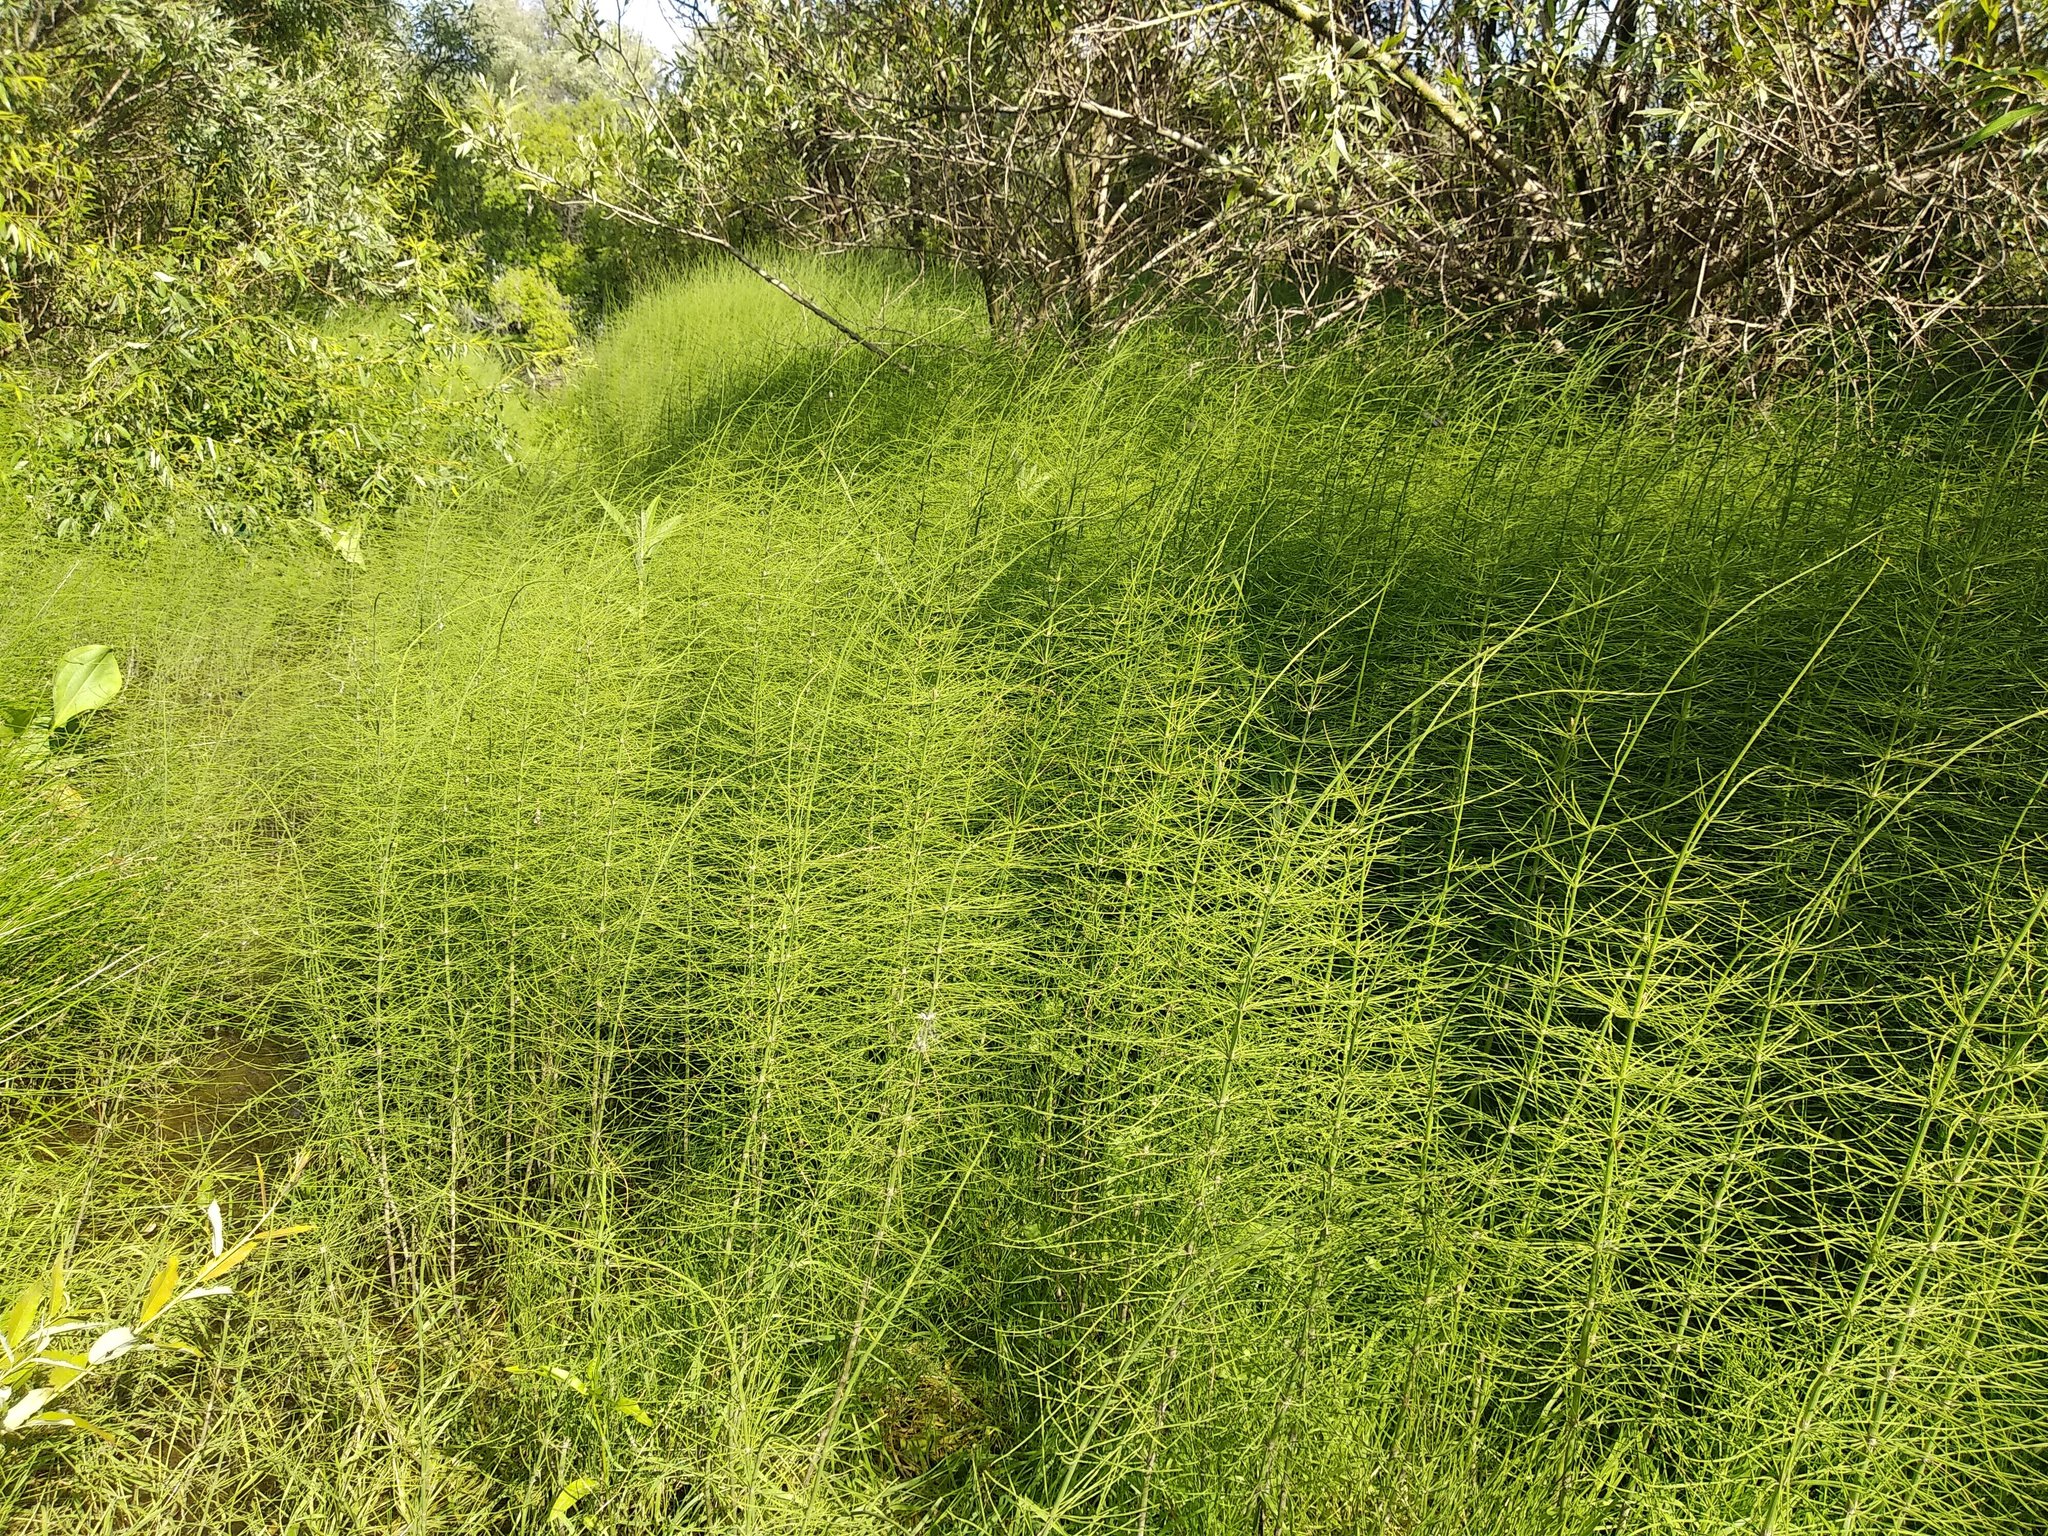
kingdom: Plantae
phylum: Tracheophyta
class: Polypodiopsida
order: Equisetales
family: Equisetaceae
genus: Equisetum
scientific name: Equisetum fluviatile
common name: Water horsetail
